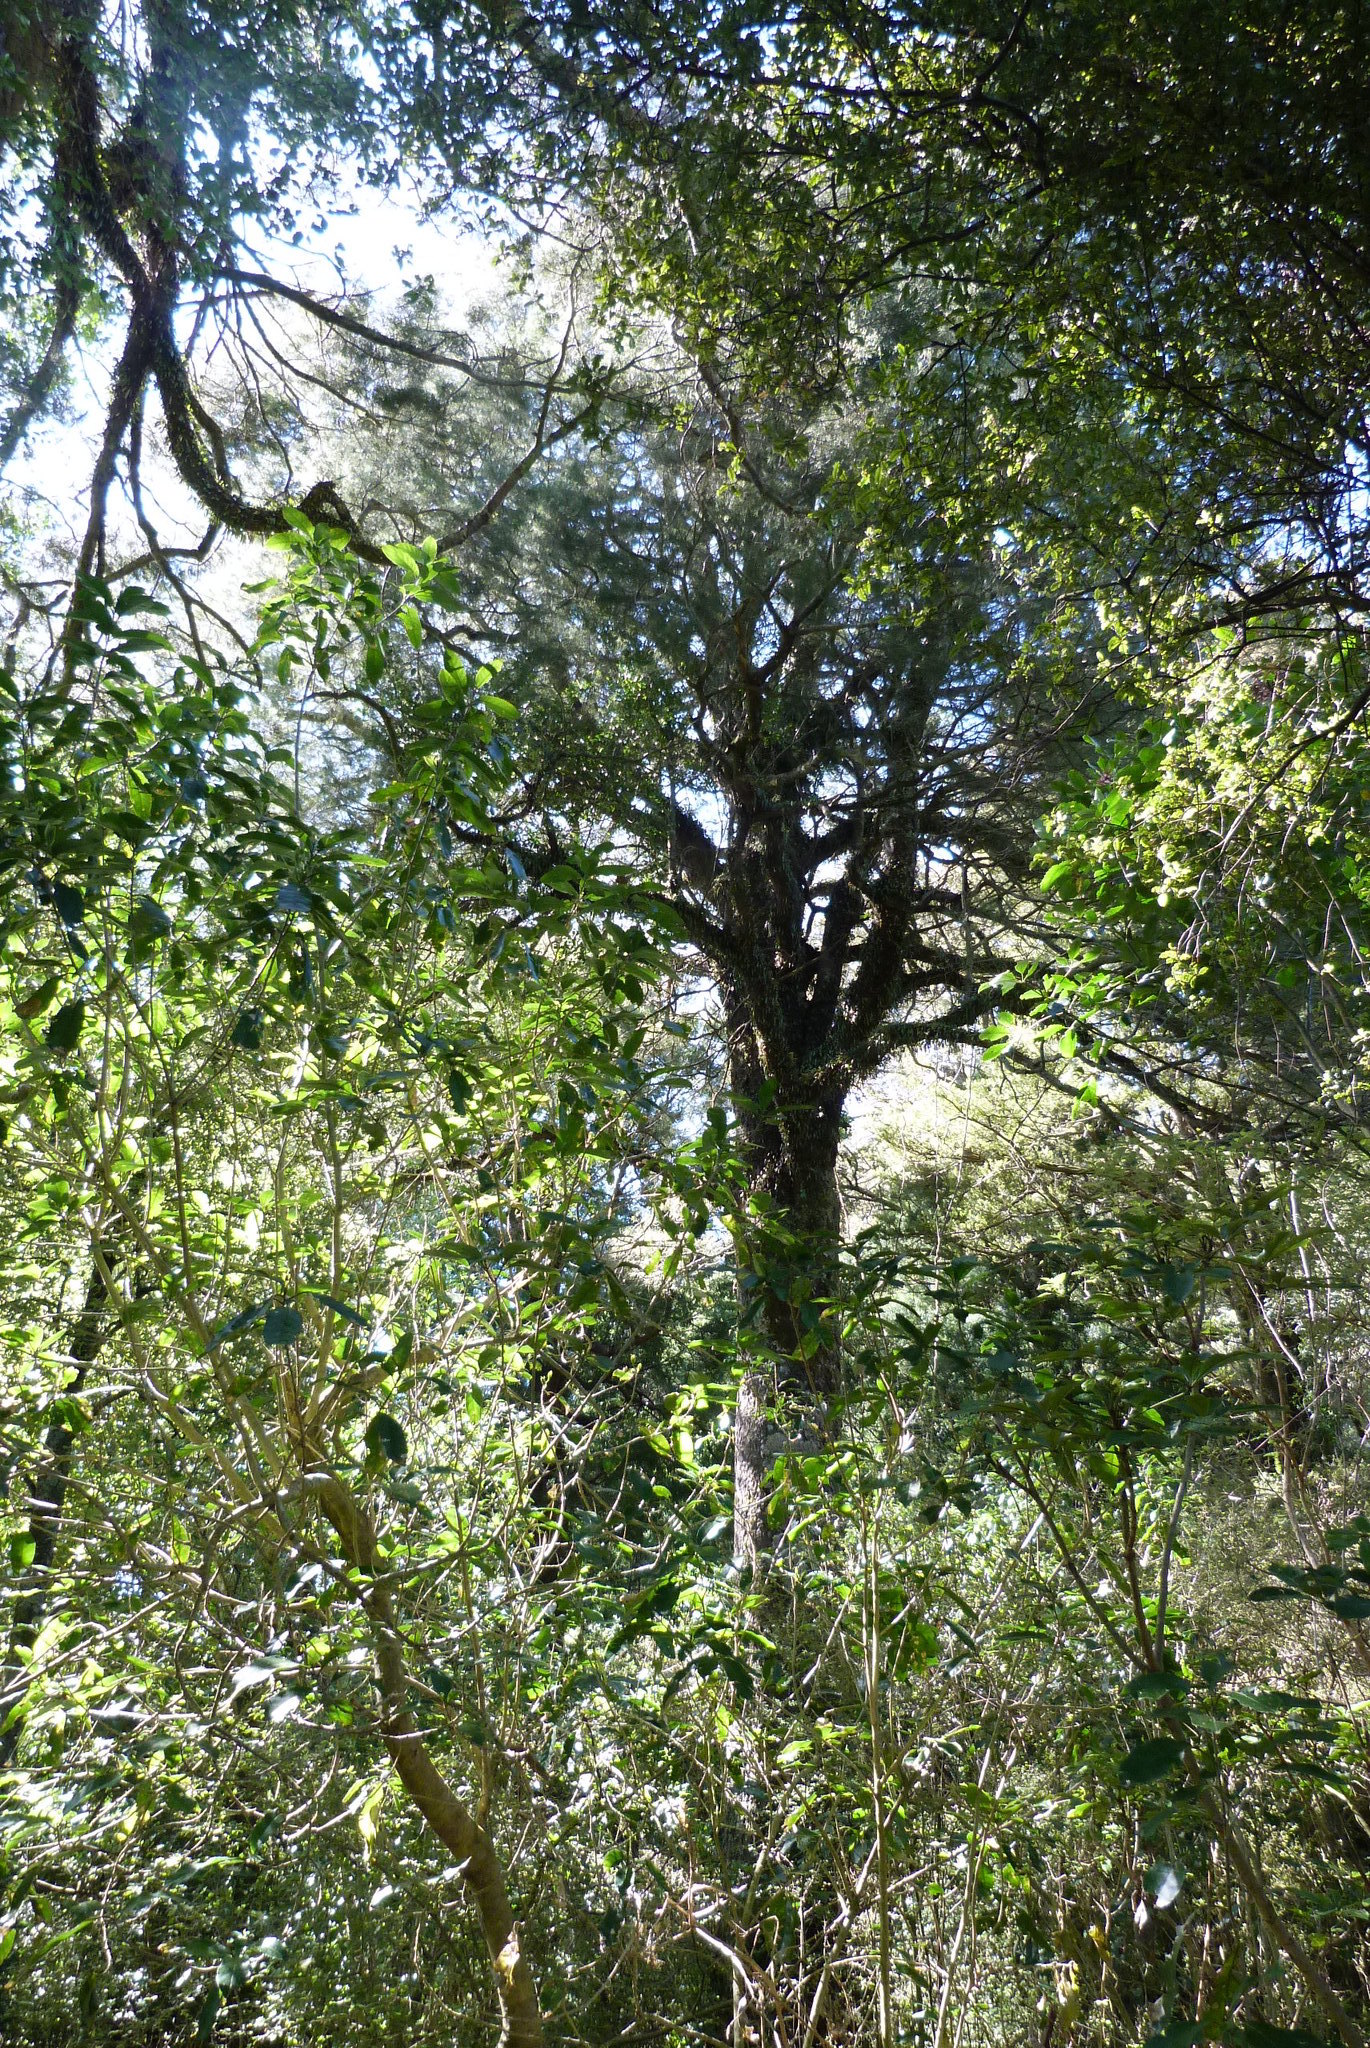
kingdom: Plantae
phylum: Tracheophyta
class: Pinopsida
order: Pinales
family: Podocarpaceae
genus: Dacrycarpus
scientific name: Dacrycarpus dacrydioides
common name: White pine
